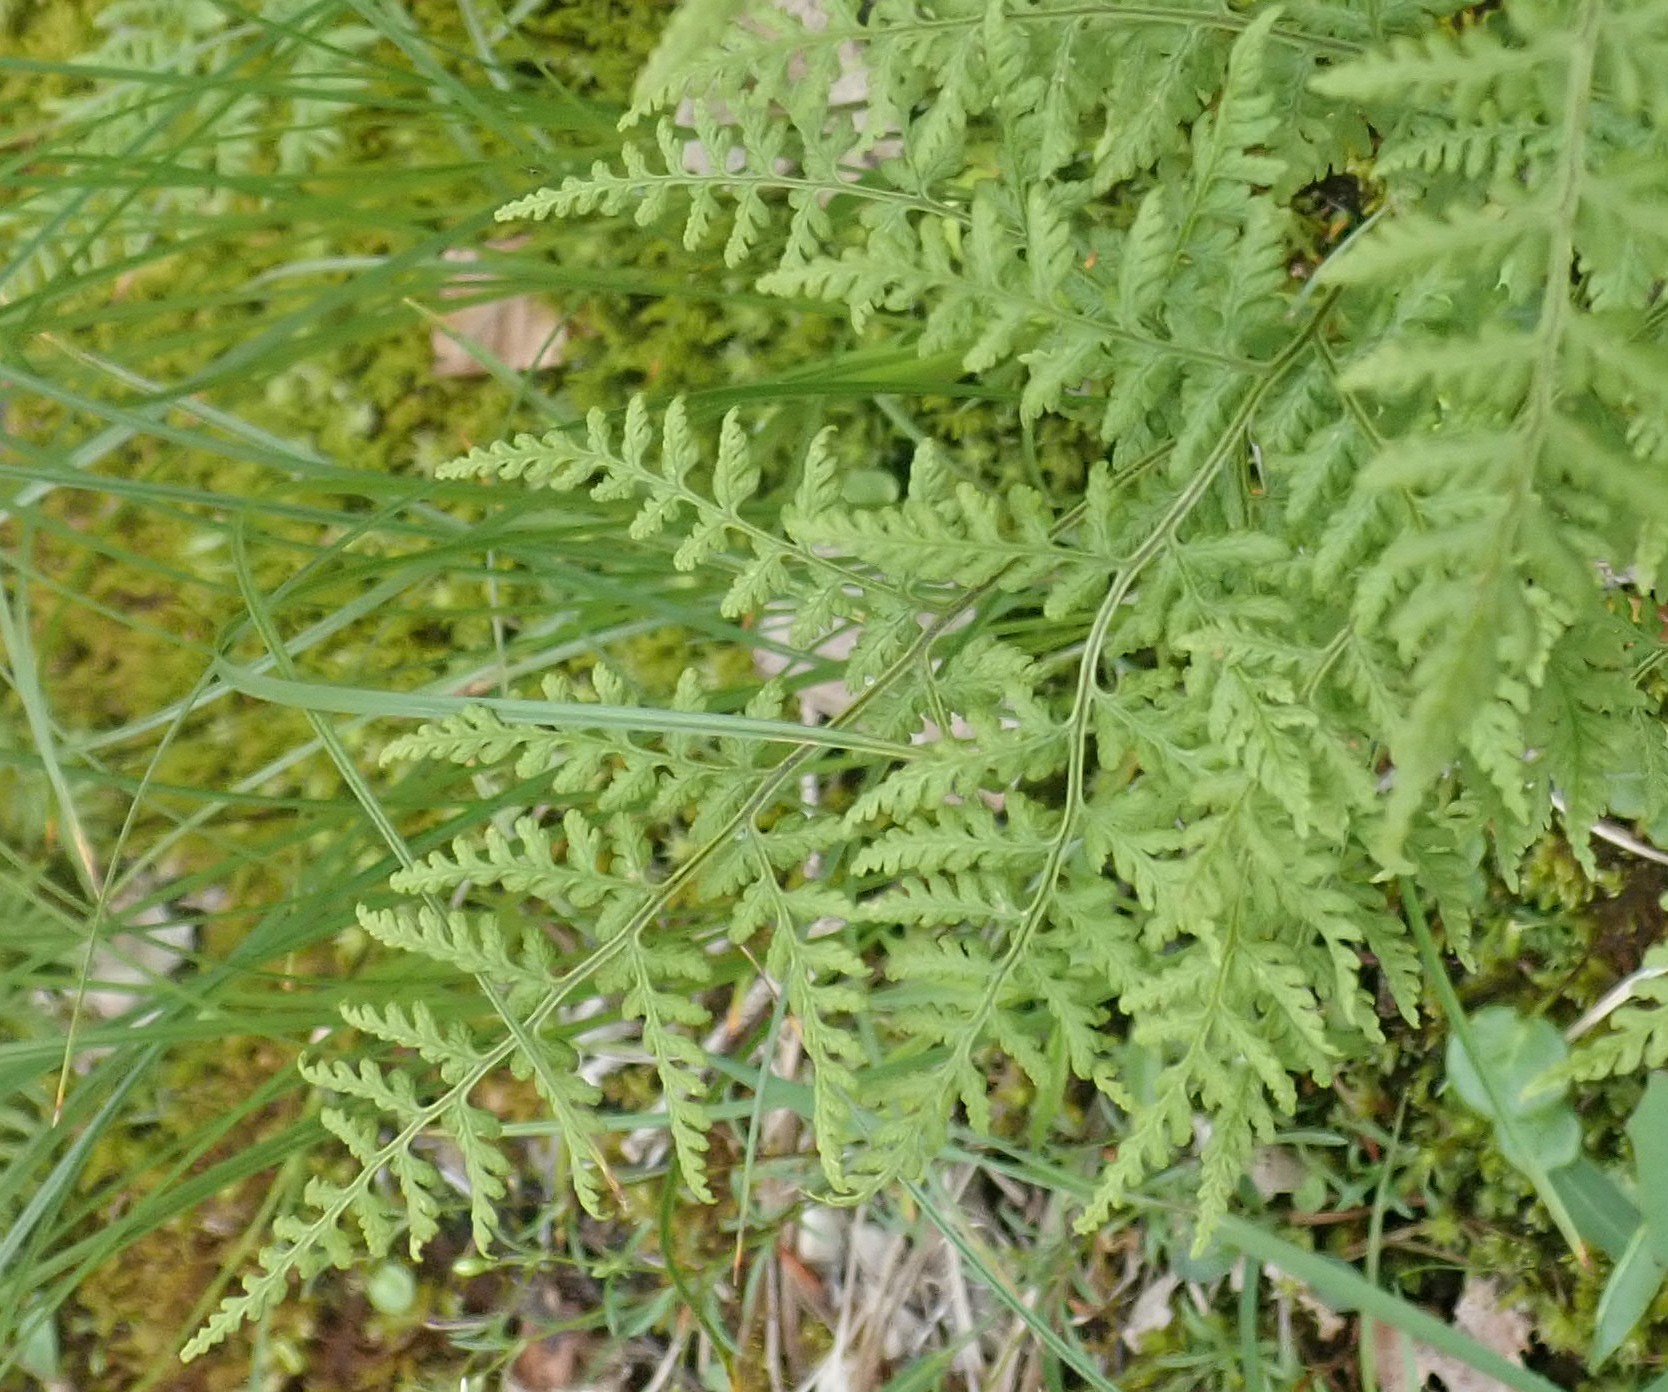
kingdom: Plantae
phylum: Tracheophyta
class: Polypodiopsida
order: Polypodiales
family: Cystopteridaceae
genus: Cystopteris
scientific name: Cystopteris montana
